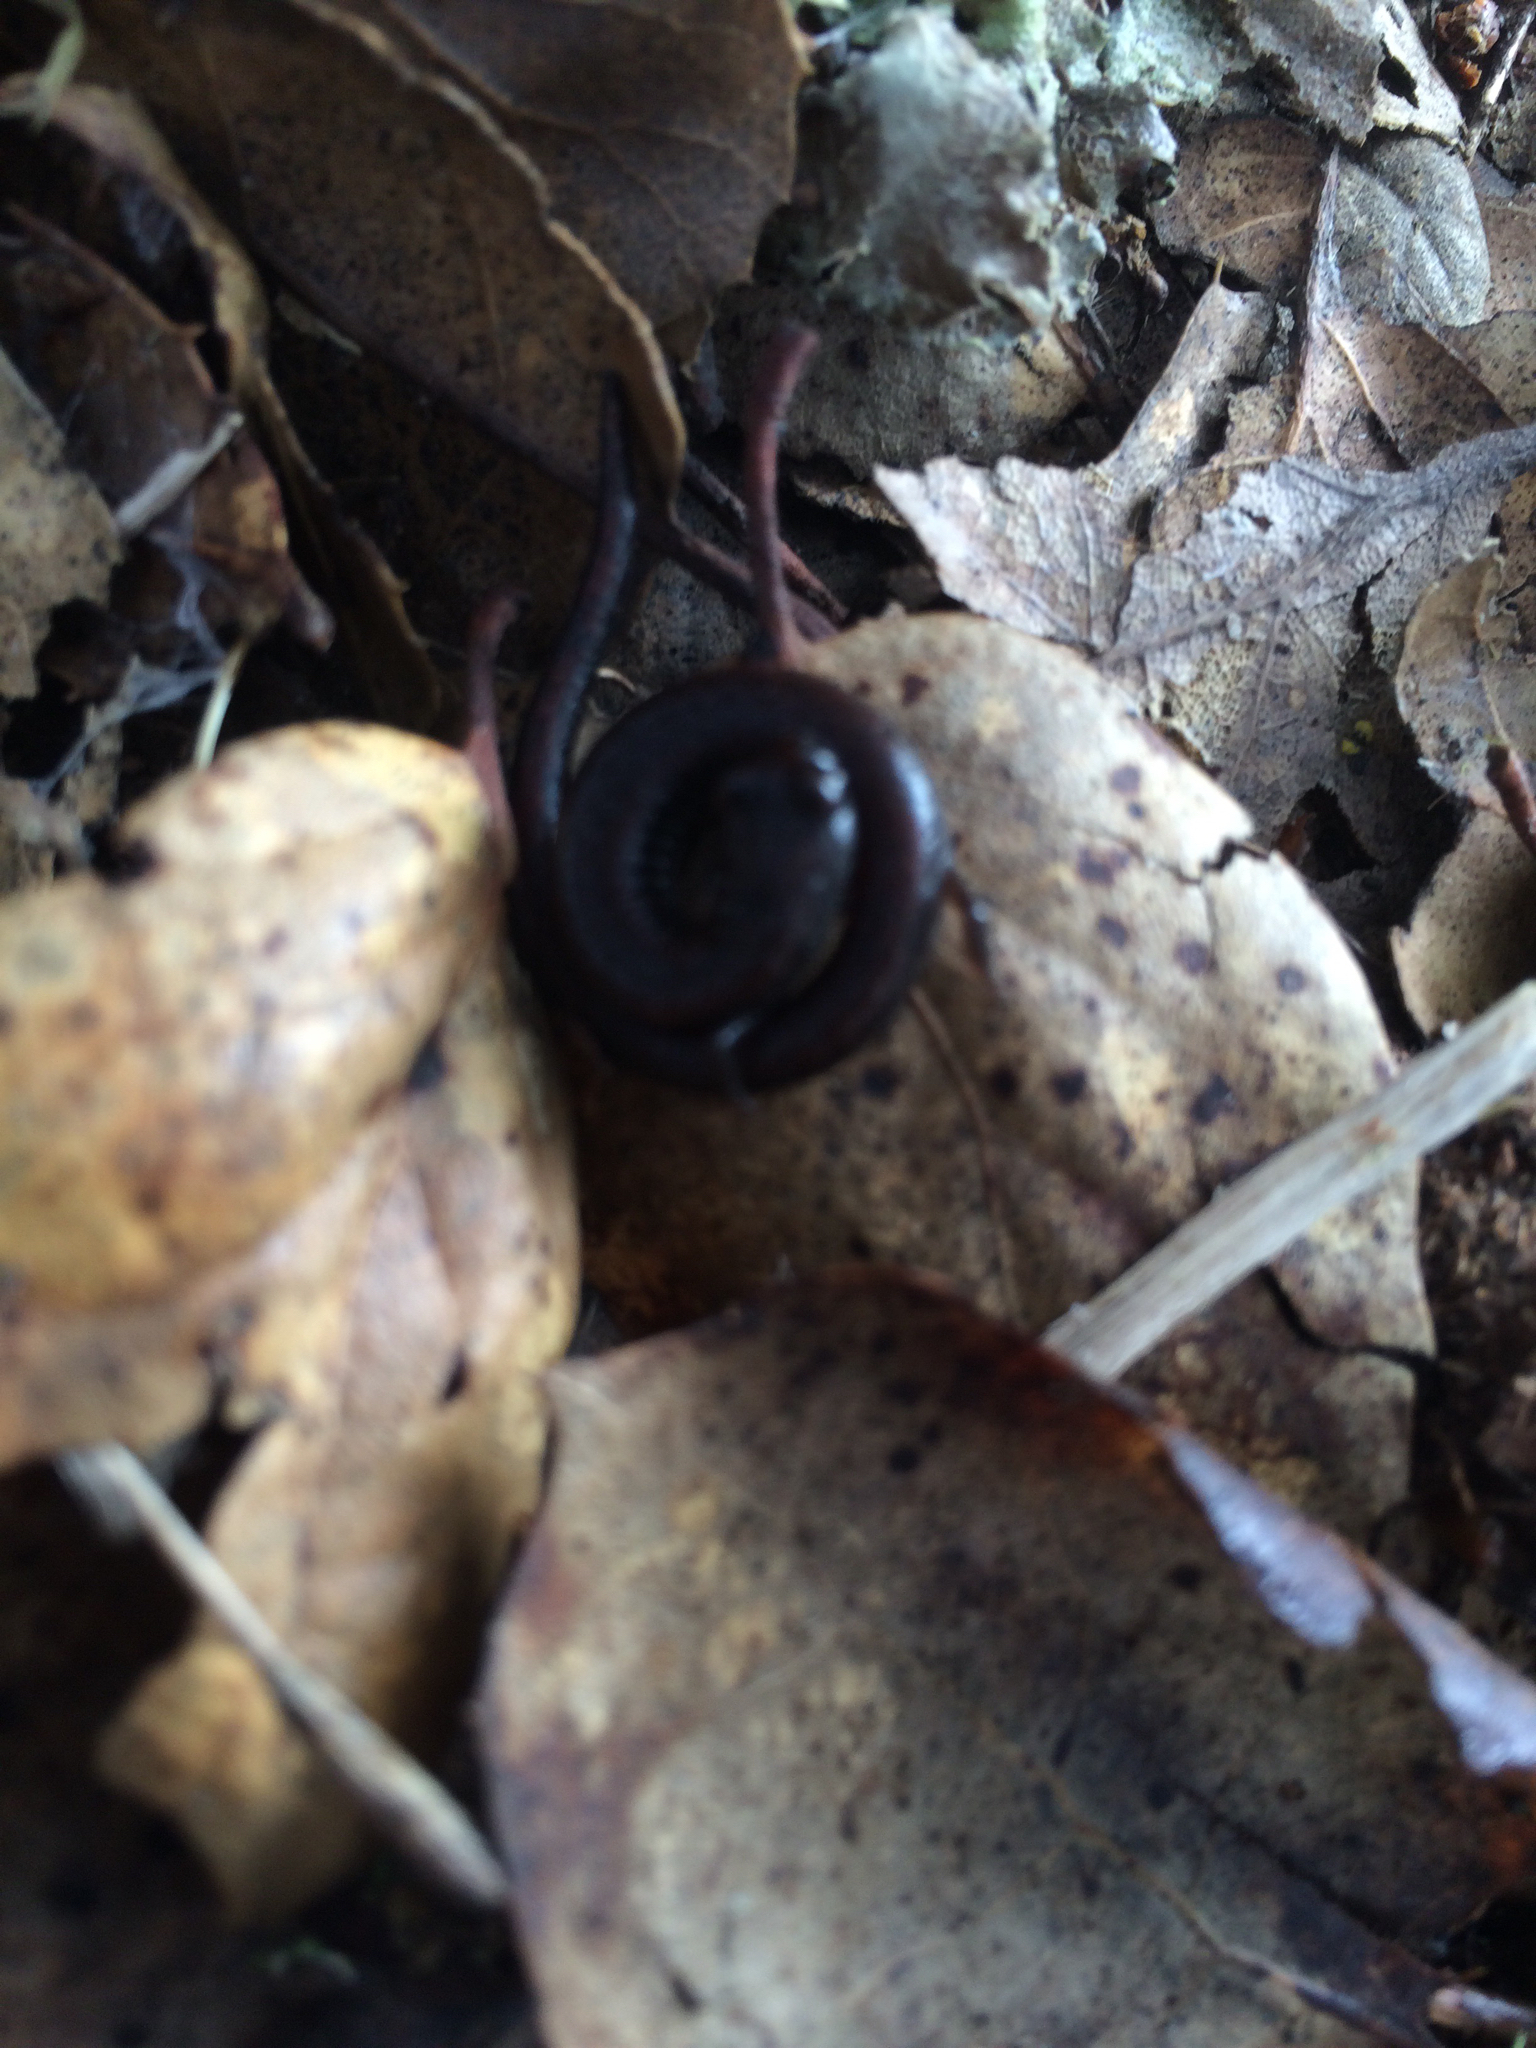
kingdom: Animalia
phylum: Chordata
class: Amphibia
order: Caudata
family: Plethodontidae
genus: Batrachoseps
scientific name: Batrachoseps attenuatus
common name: California slender salamander
